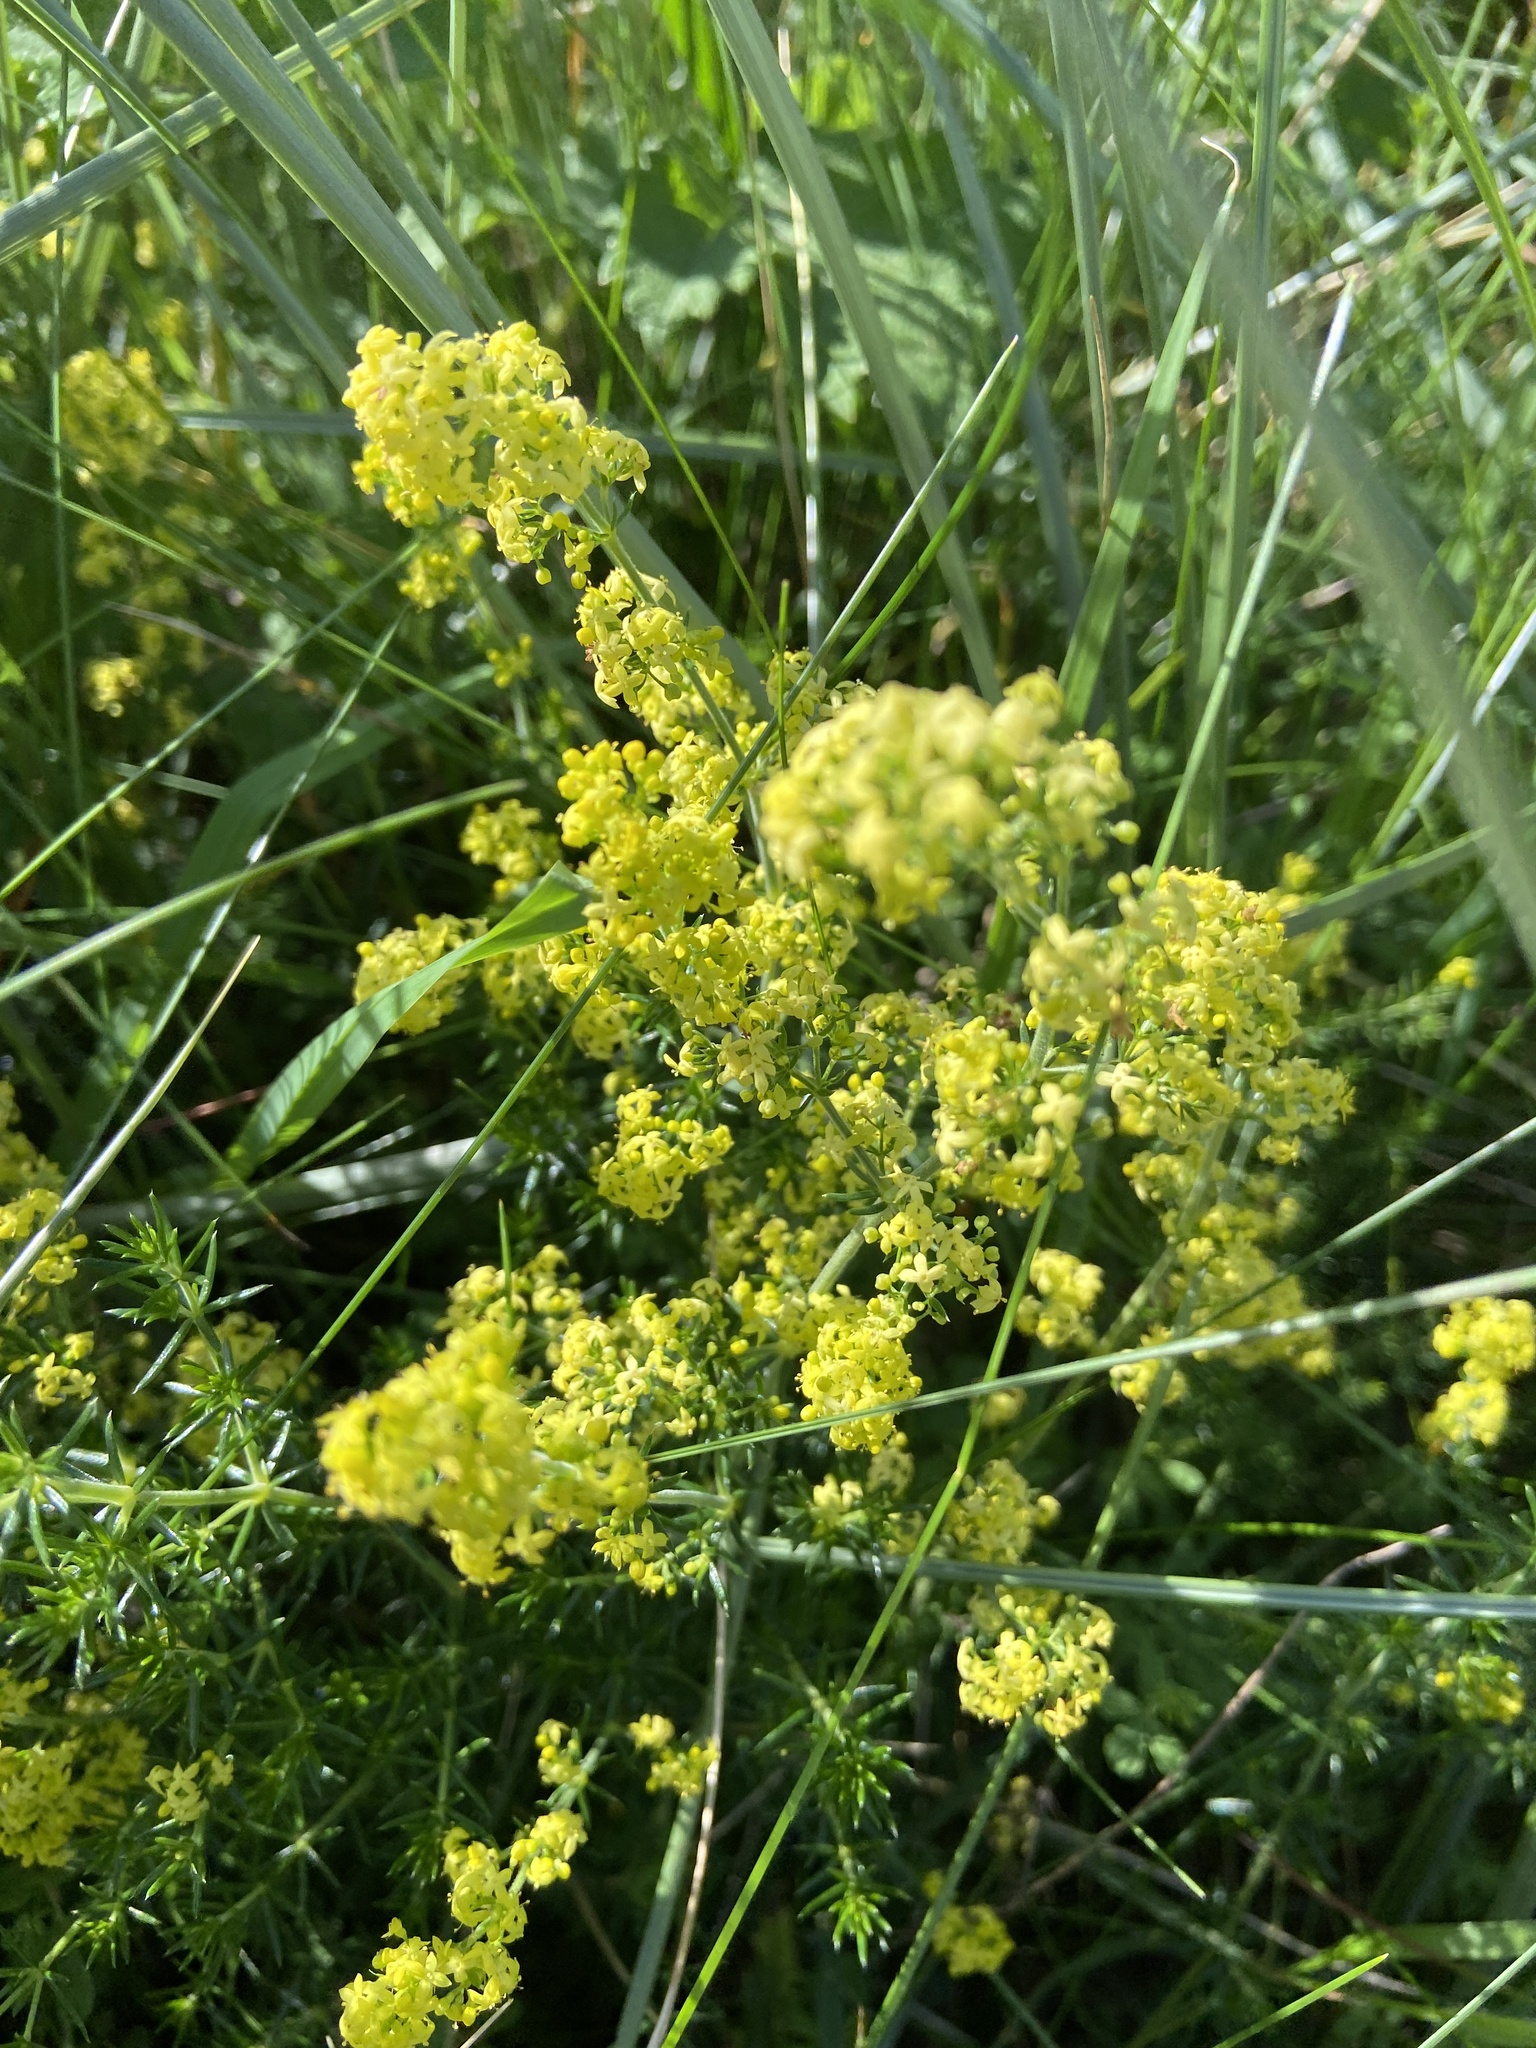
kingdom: Plantae
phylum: Tracheophyta
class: Magnoliopsida
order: Gentianales
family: Rubiaceae
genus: Galium
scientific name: Galium verum
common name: Lady's bedstraw
